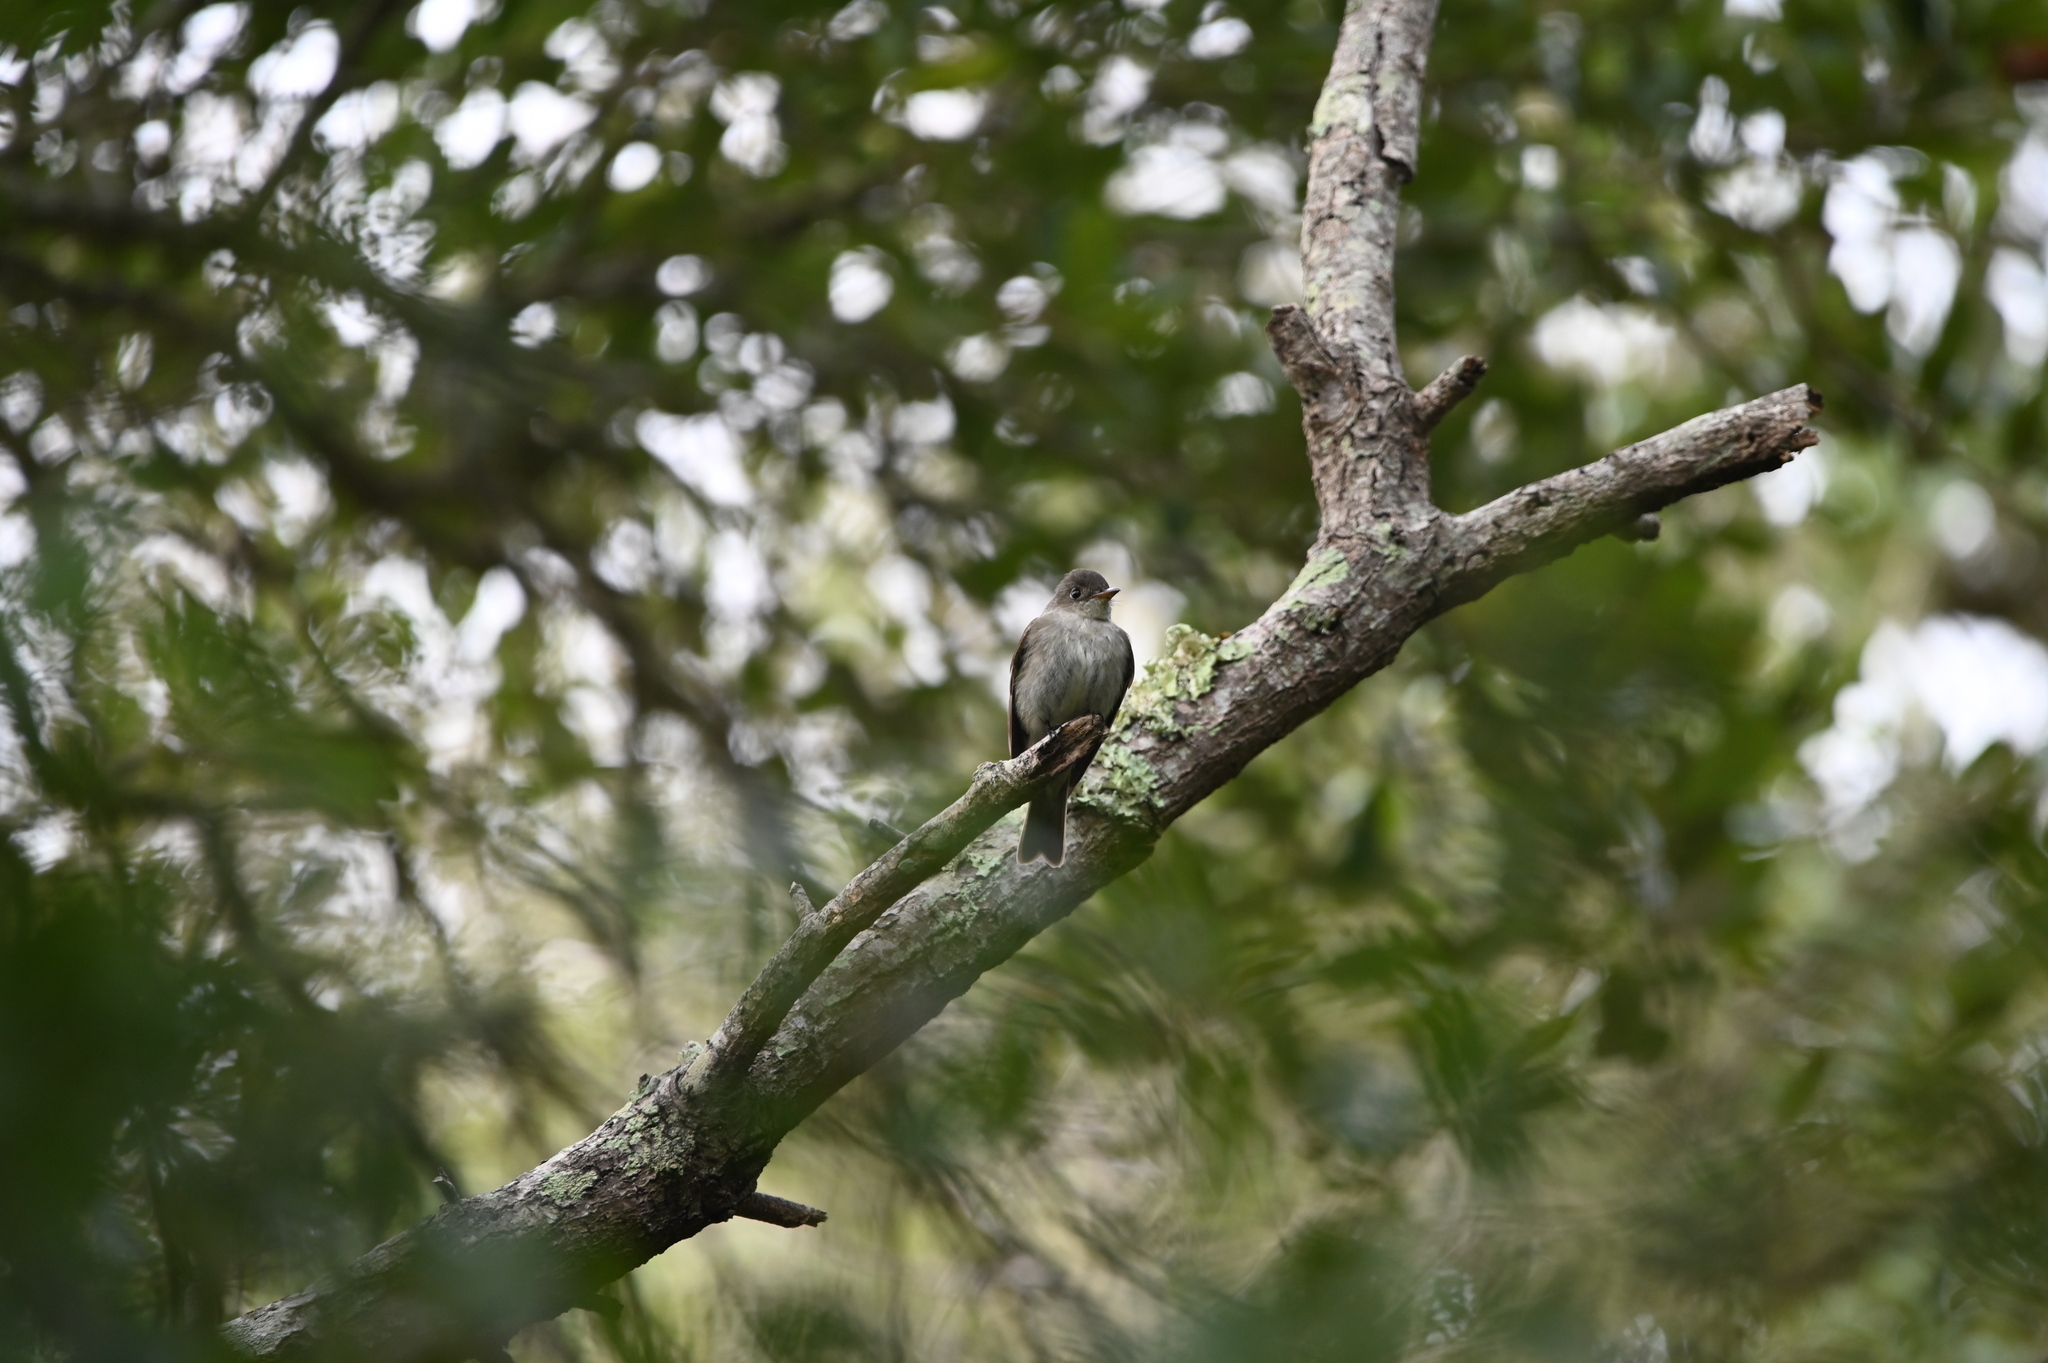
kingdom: Animalia
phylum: Chordata
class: Aves
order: Passeriformes
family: Tyrannidae
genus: Contopus
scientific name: Contopus virens
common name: Eastern wood-pewee
